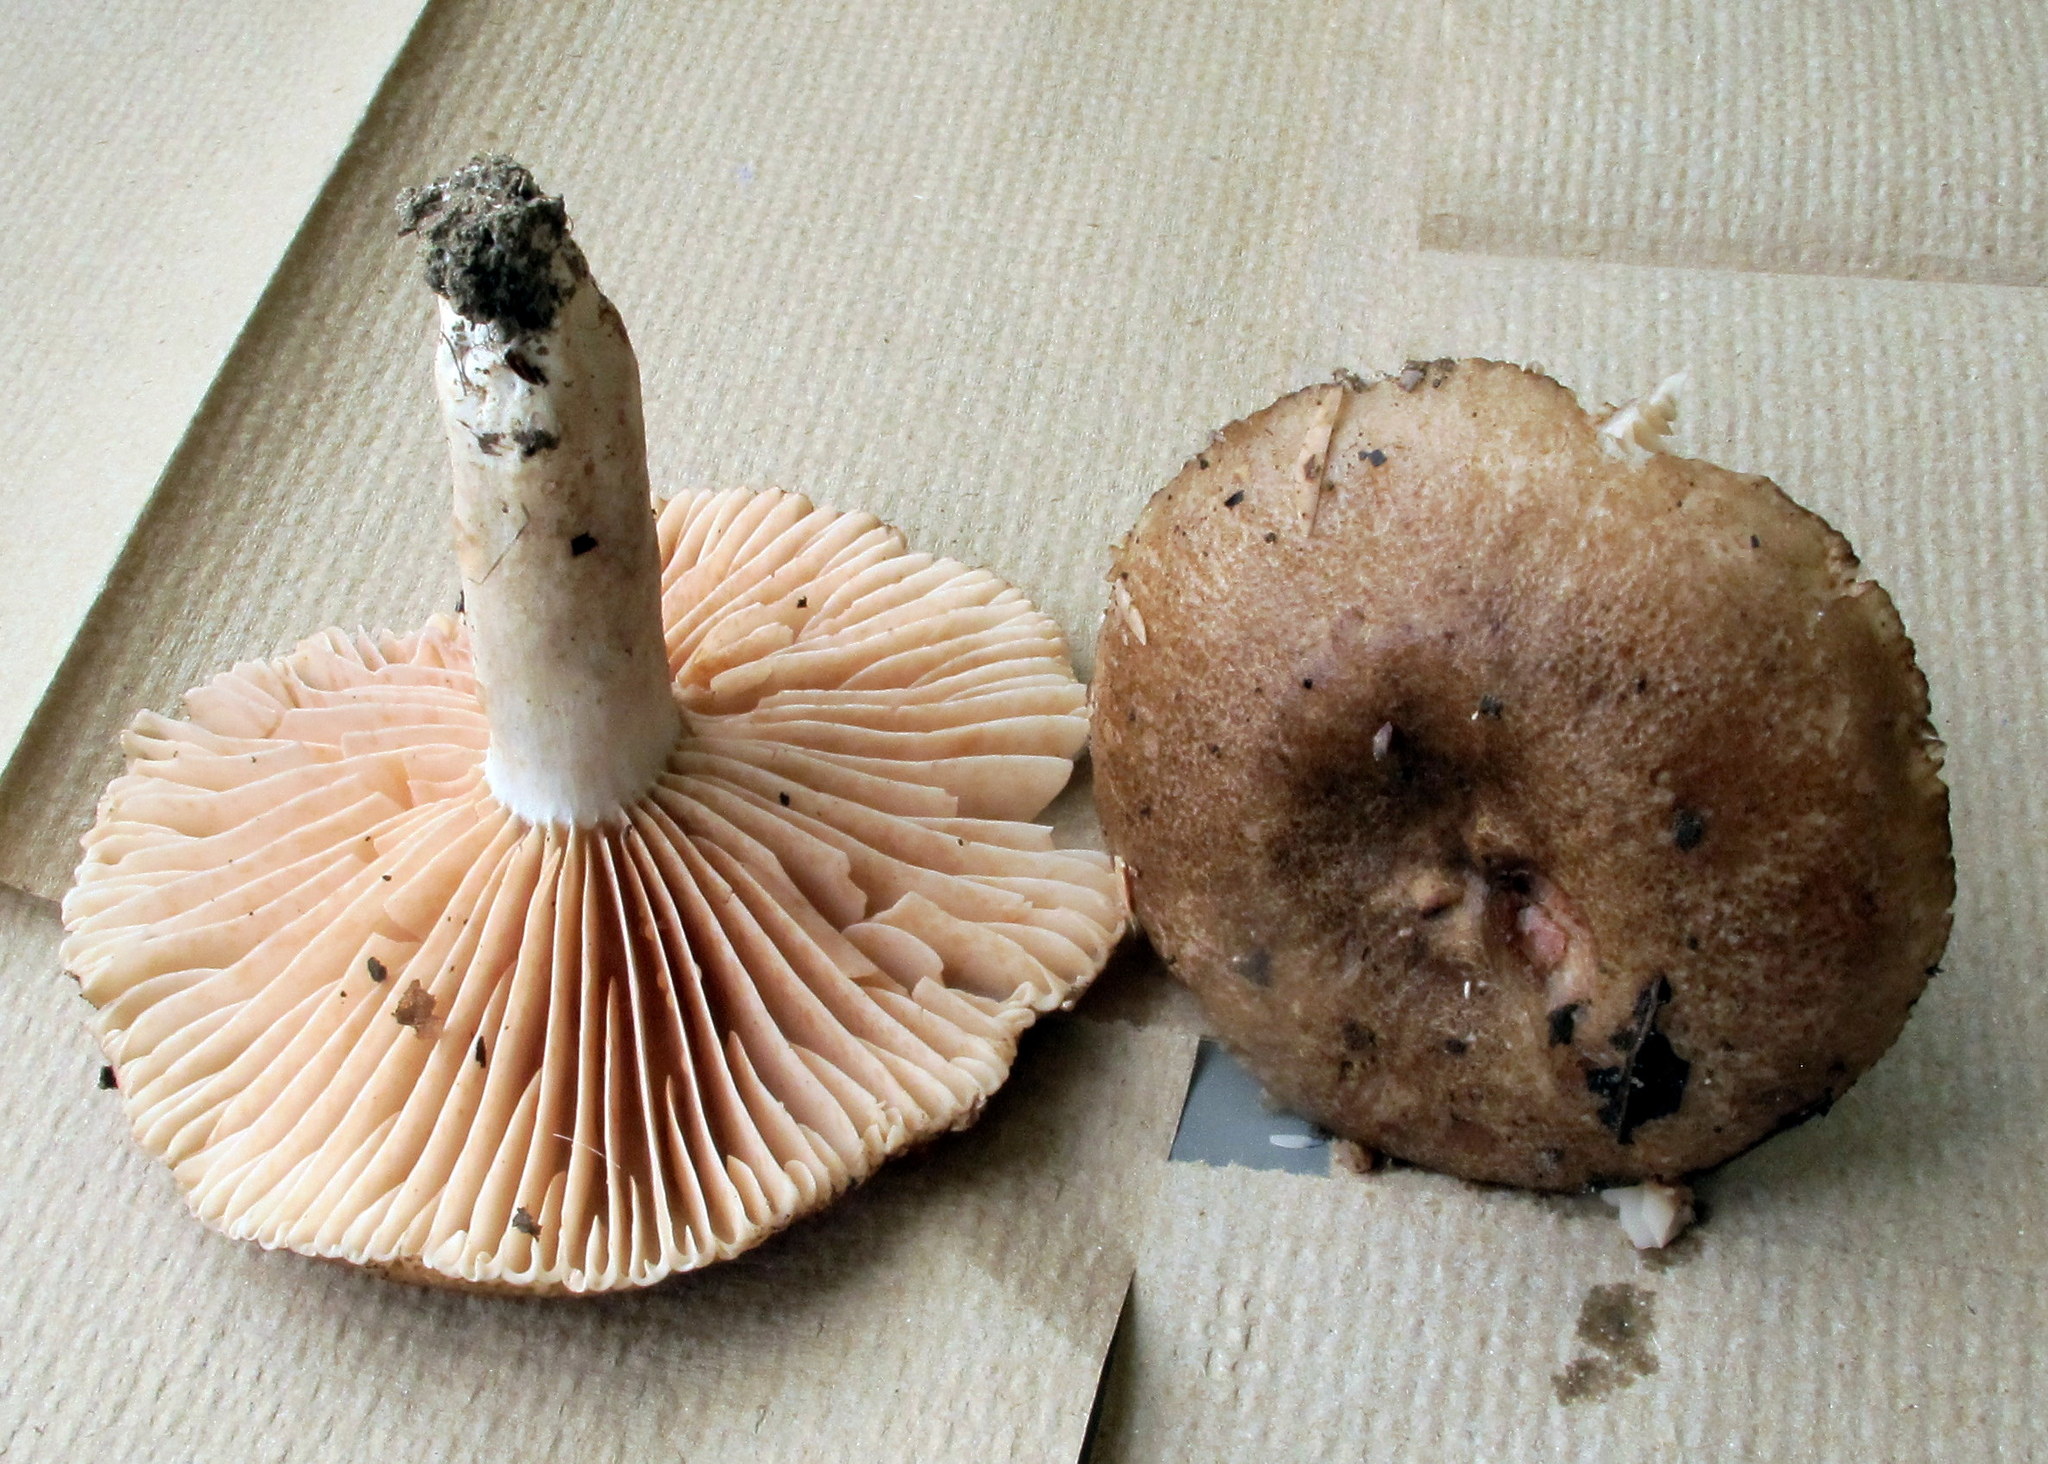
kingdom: Fungi
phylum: Basidiomycota
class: Agaricomycetes
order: Russulales
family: Russulaceae
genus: Russula
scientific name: Russula adusta
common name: Winecork brittlegill
